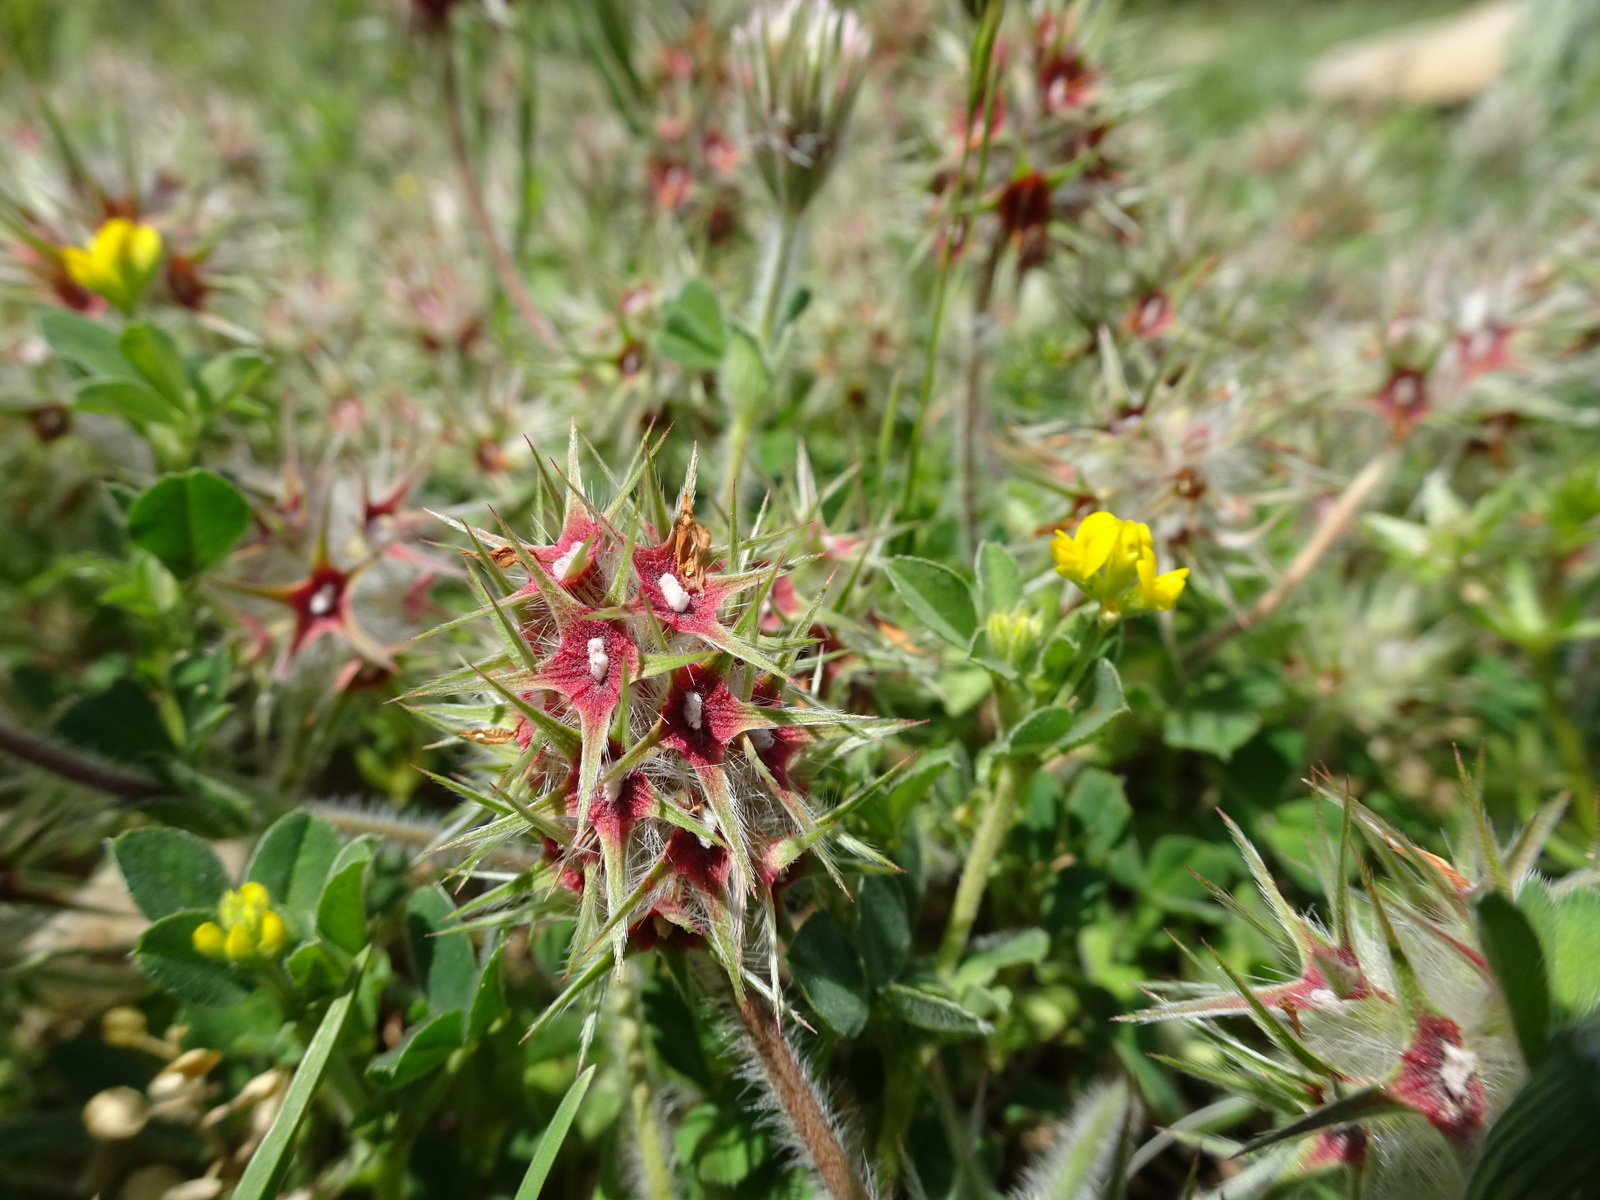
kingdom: Plantae
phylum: Tracheophyta
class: Magnoliopsida
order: Fabales
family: Fabaceae
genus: Trifolium
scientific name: Trifolium stellatum
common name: Starry clover
